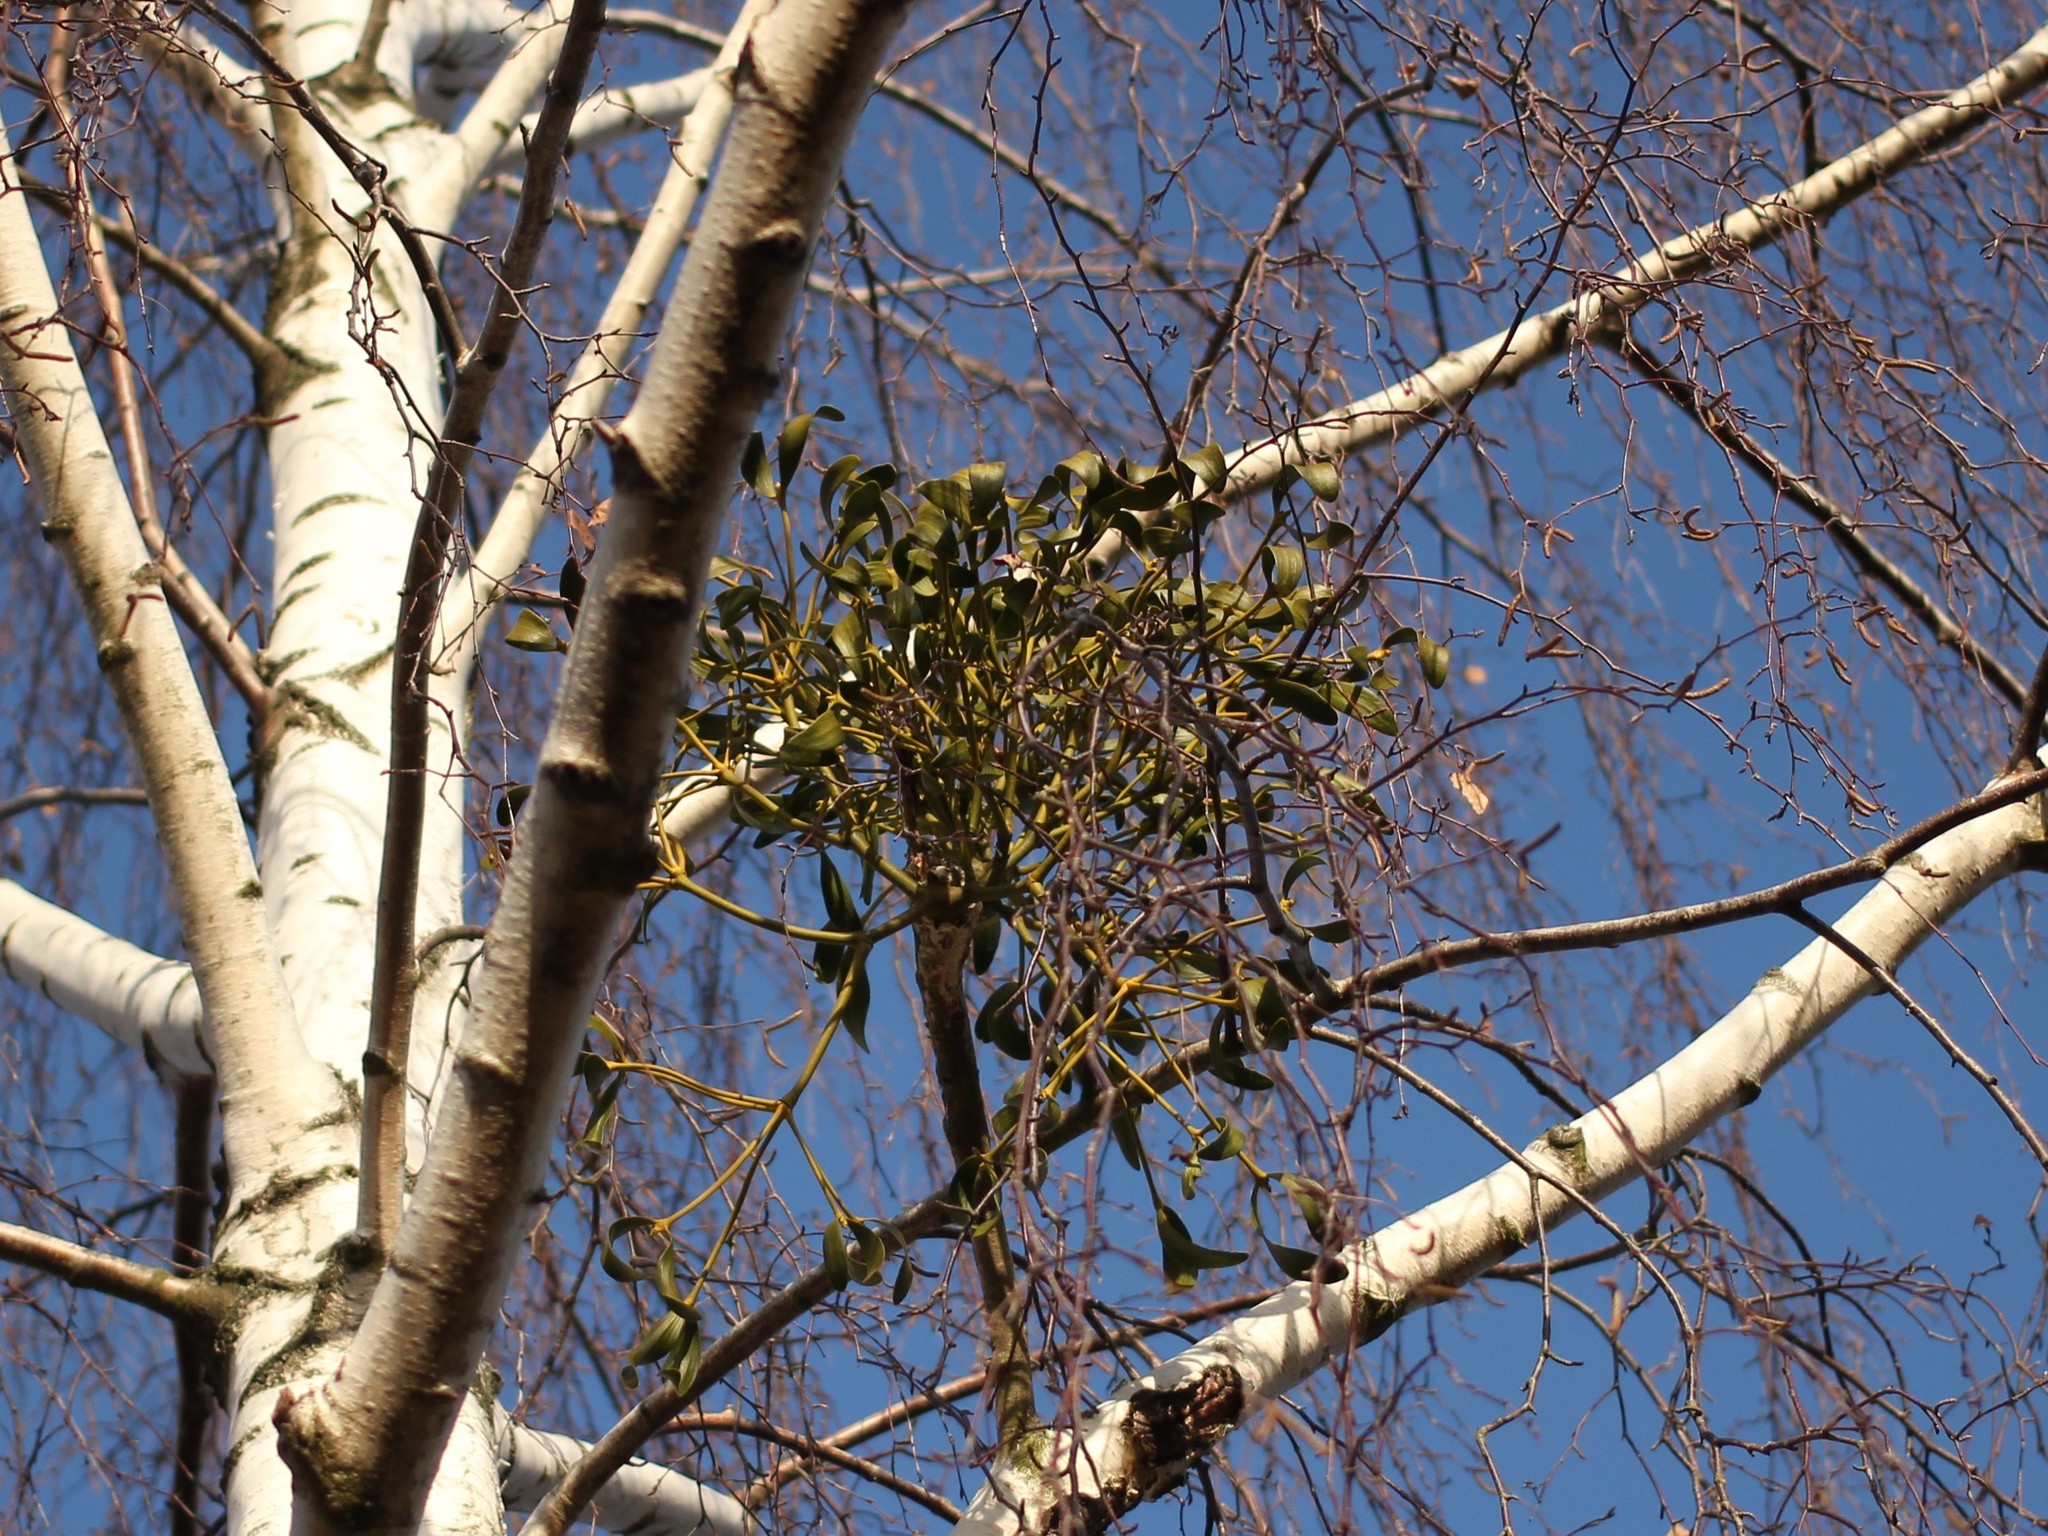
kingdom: Plantae
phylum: Tracheophyta
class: Magnoliopsida
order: Santalales
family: Viscaceae
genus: Viscum
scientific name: Viscum album
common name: Mistletoe
